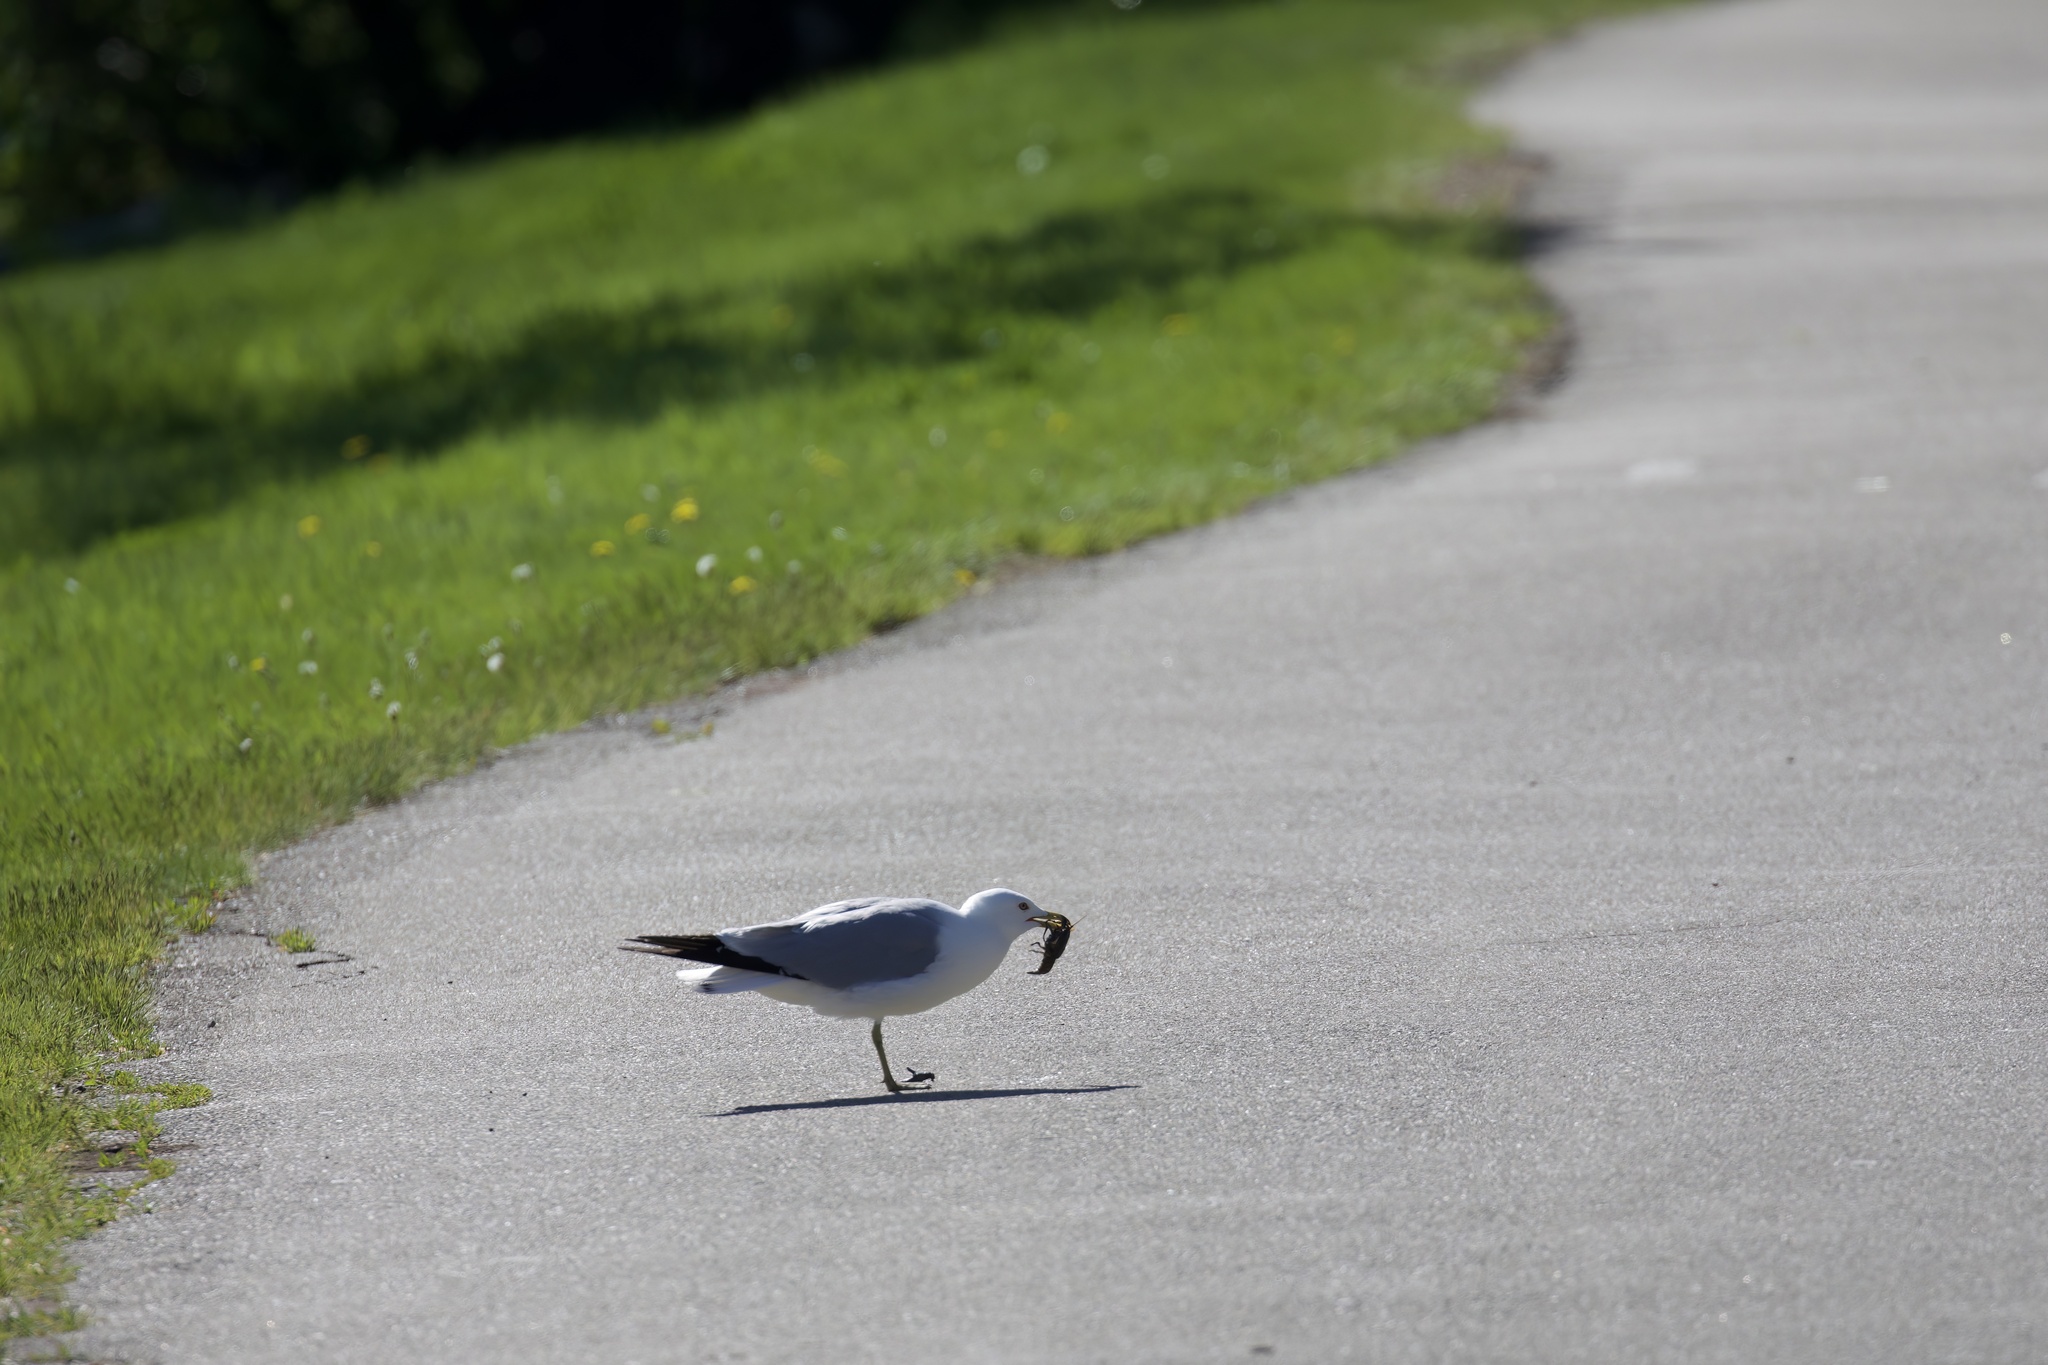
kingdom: Animalia
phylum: Chordata
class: Aves
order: Charadriiformes
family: Laridae
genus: Larus
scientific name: Larus delawarensis
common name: Ring-billed gull
